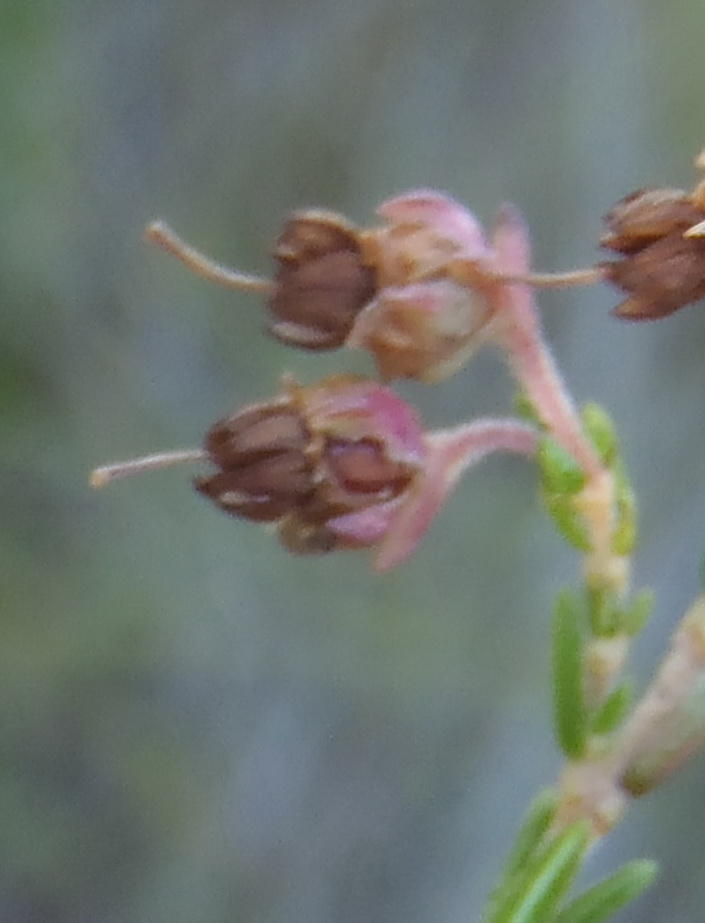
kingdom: Plantae
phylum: Tracheophyta
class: Magnoliopsida
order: Ericales
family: Ericaceae
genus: Erica
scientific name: Erica triceps
